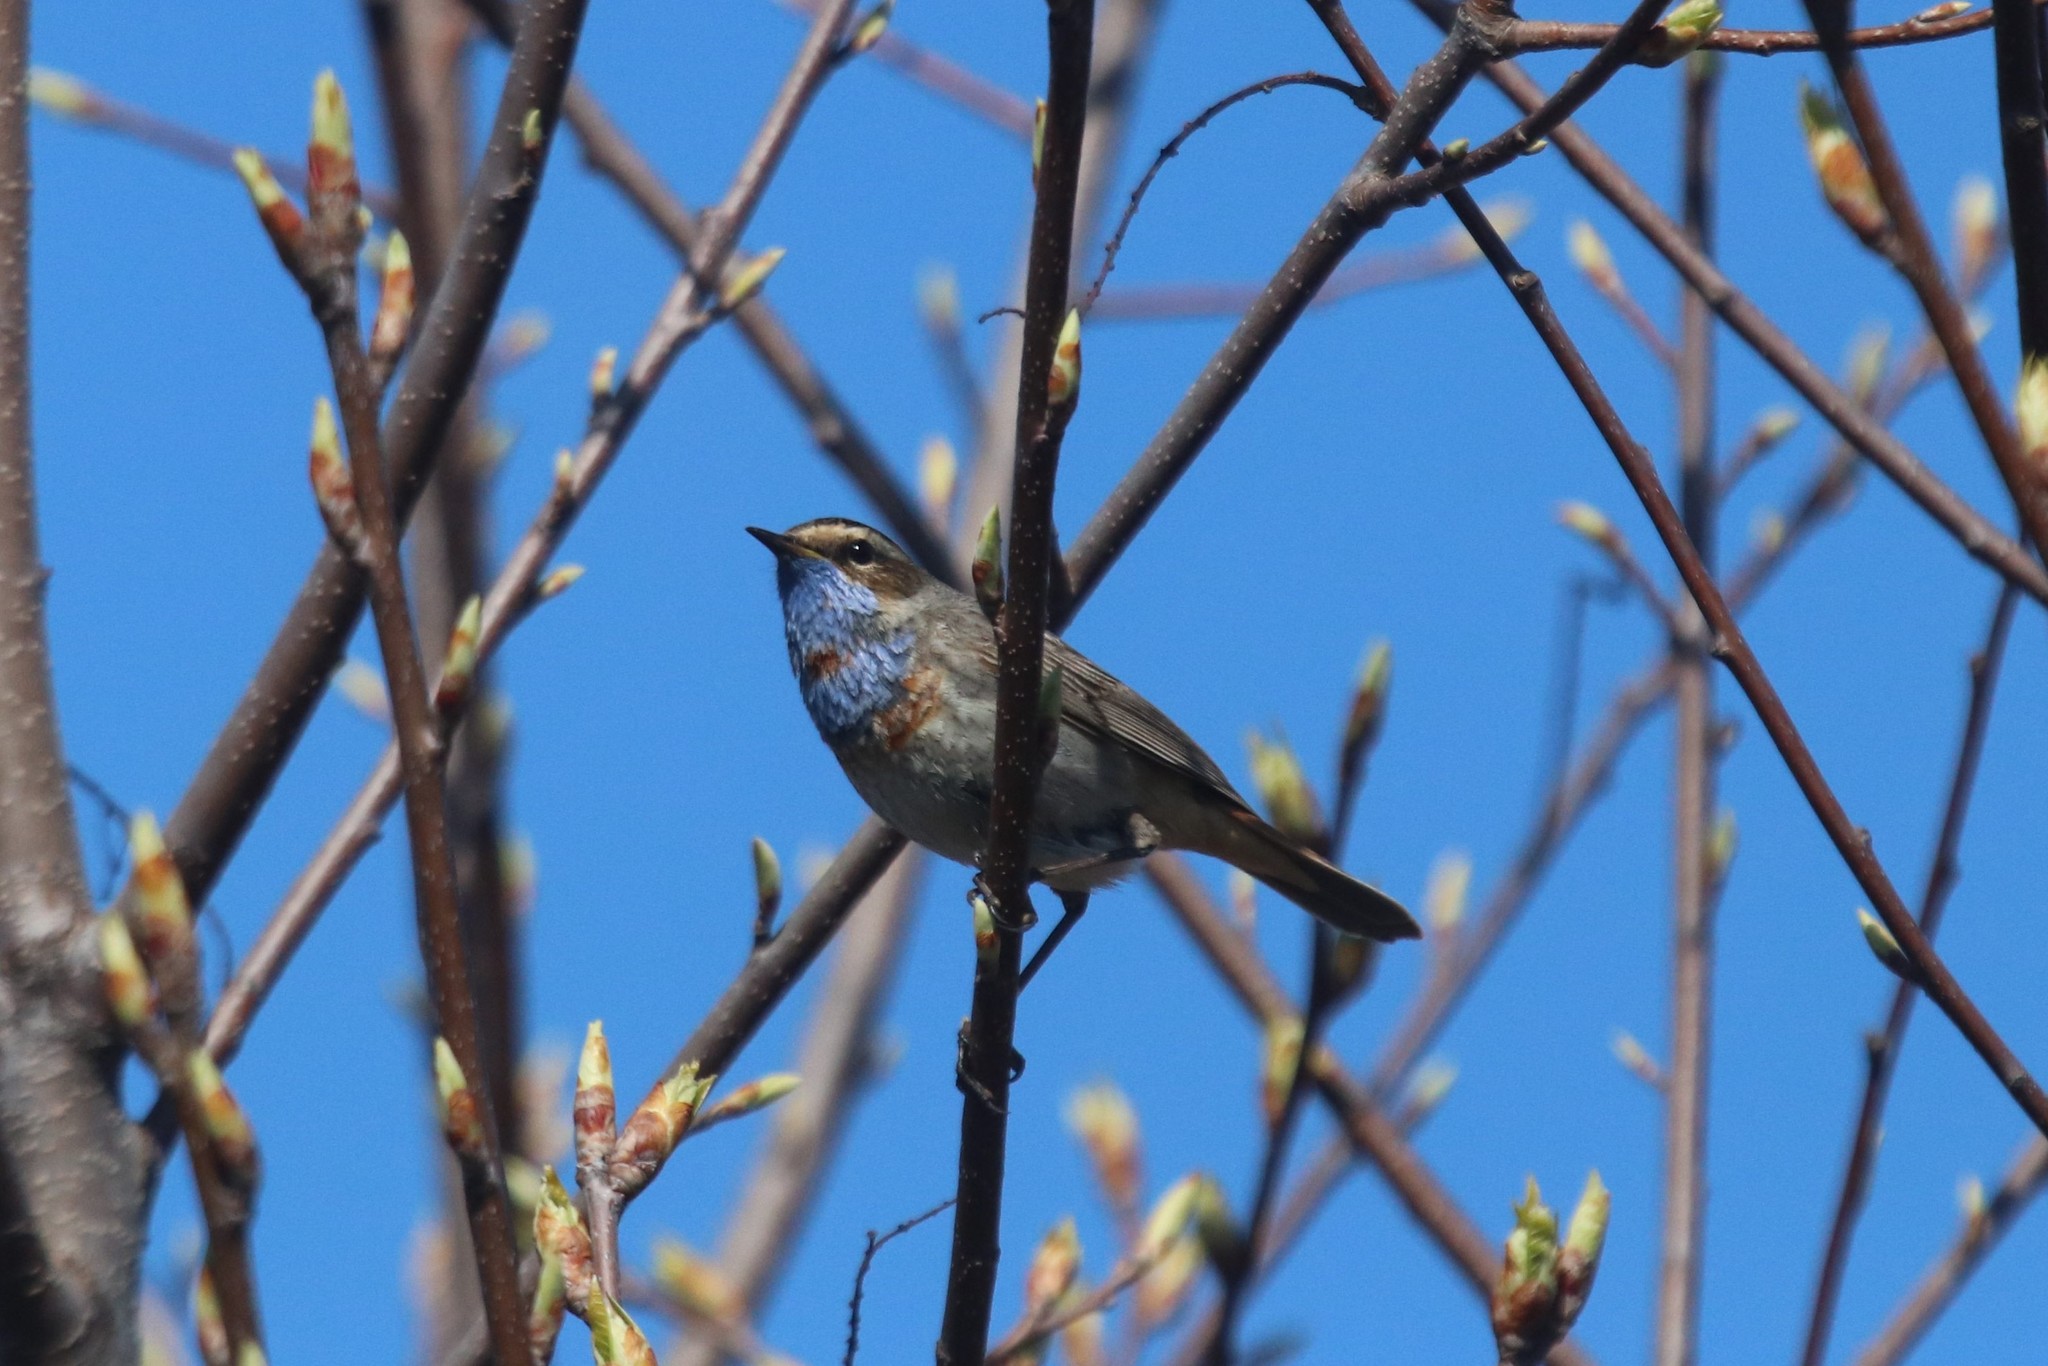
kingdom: Animalia
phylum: Chordata
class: Aves
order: Passeriformes
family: Muscicapidae
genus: Luscinia
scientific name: Luscinia svecica
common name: Bluethroat
